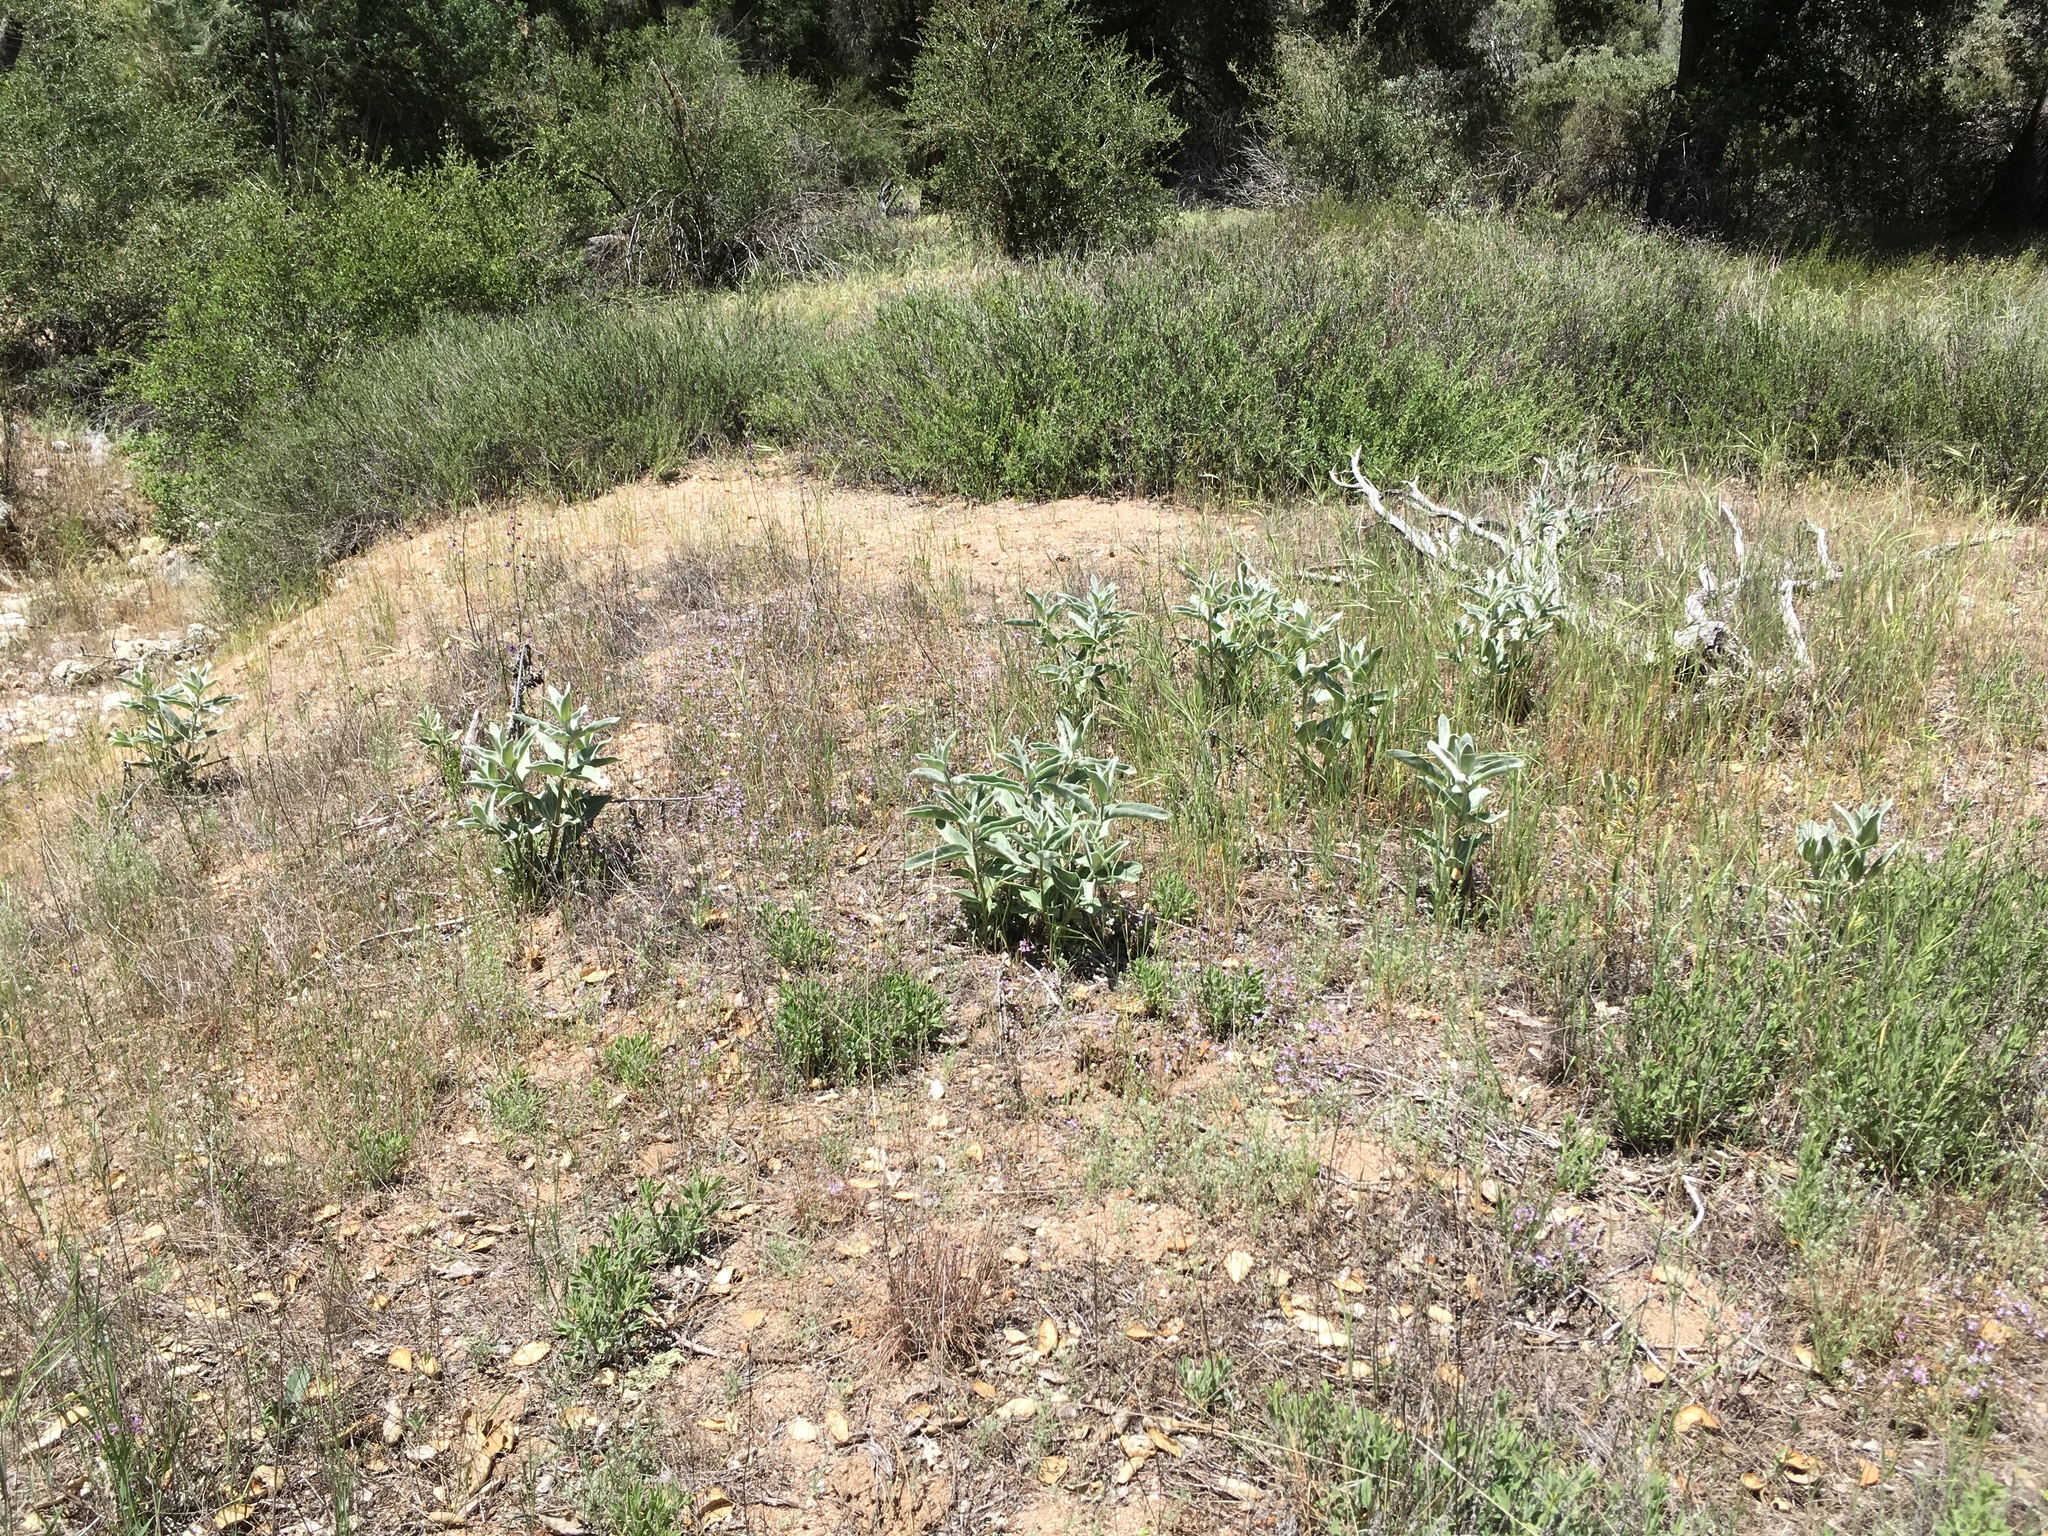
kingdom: Plantae
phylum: Tracheophyta
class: Magnoliopsida
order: Gentianales
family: Apocynaceae
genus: Asclepias
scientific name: Asclepias eriocarpa
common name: Indian milkweed
